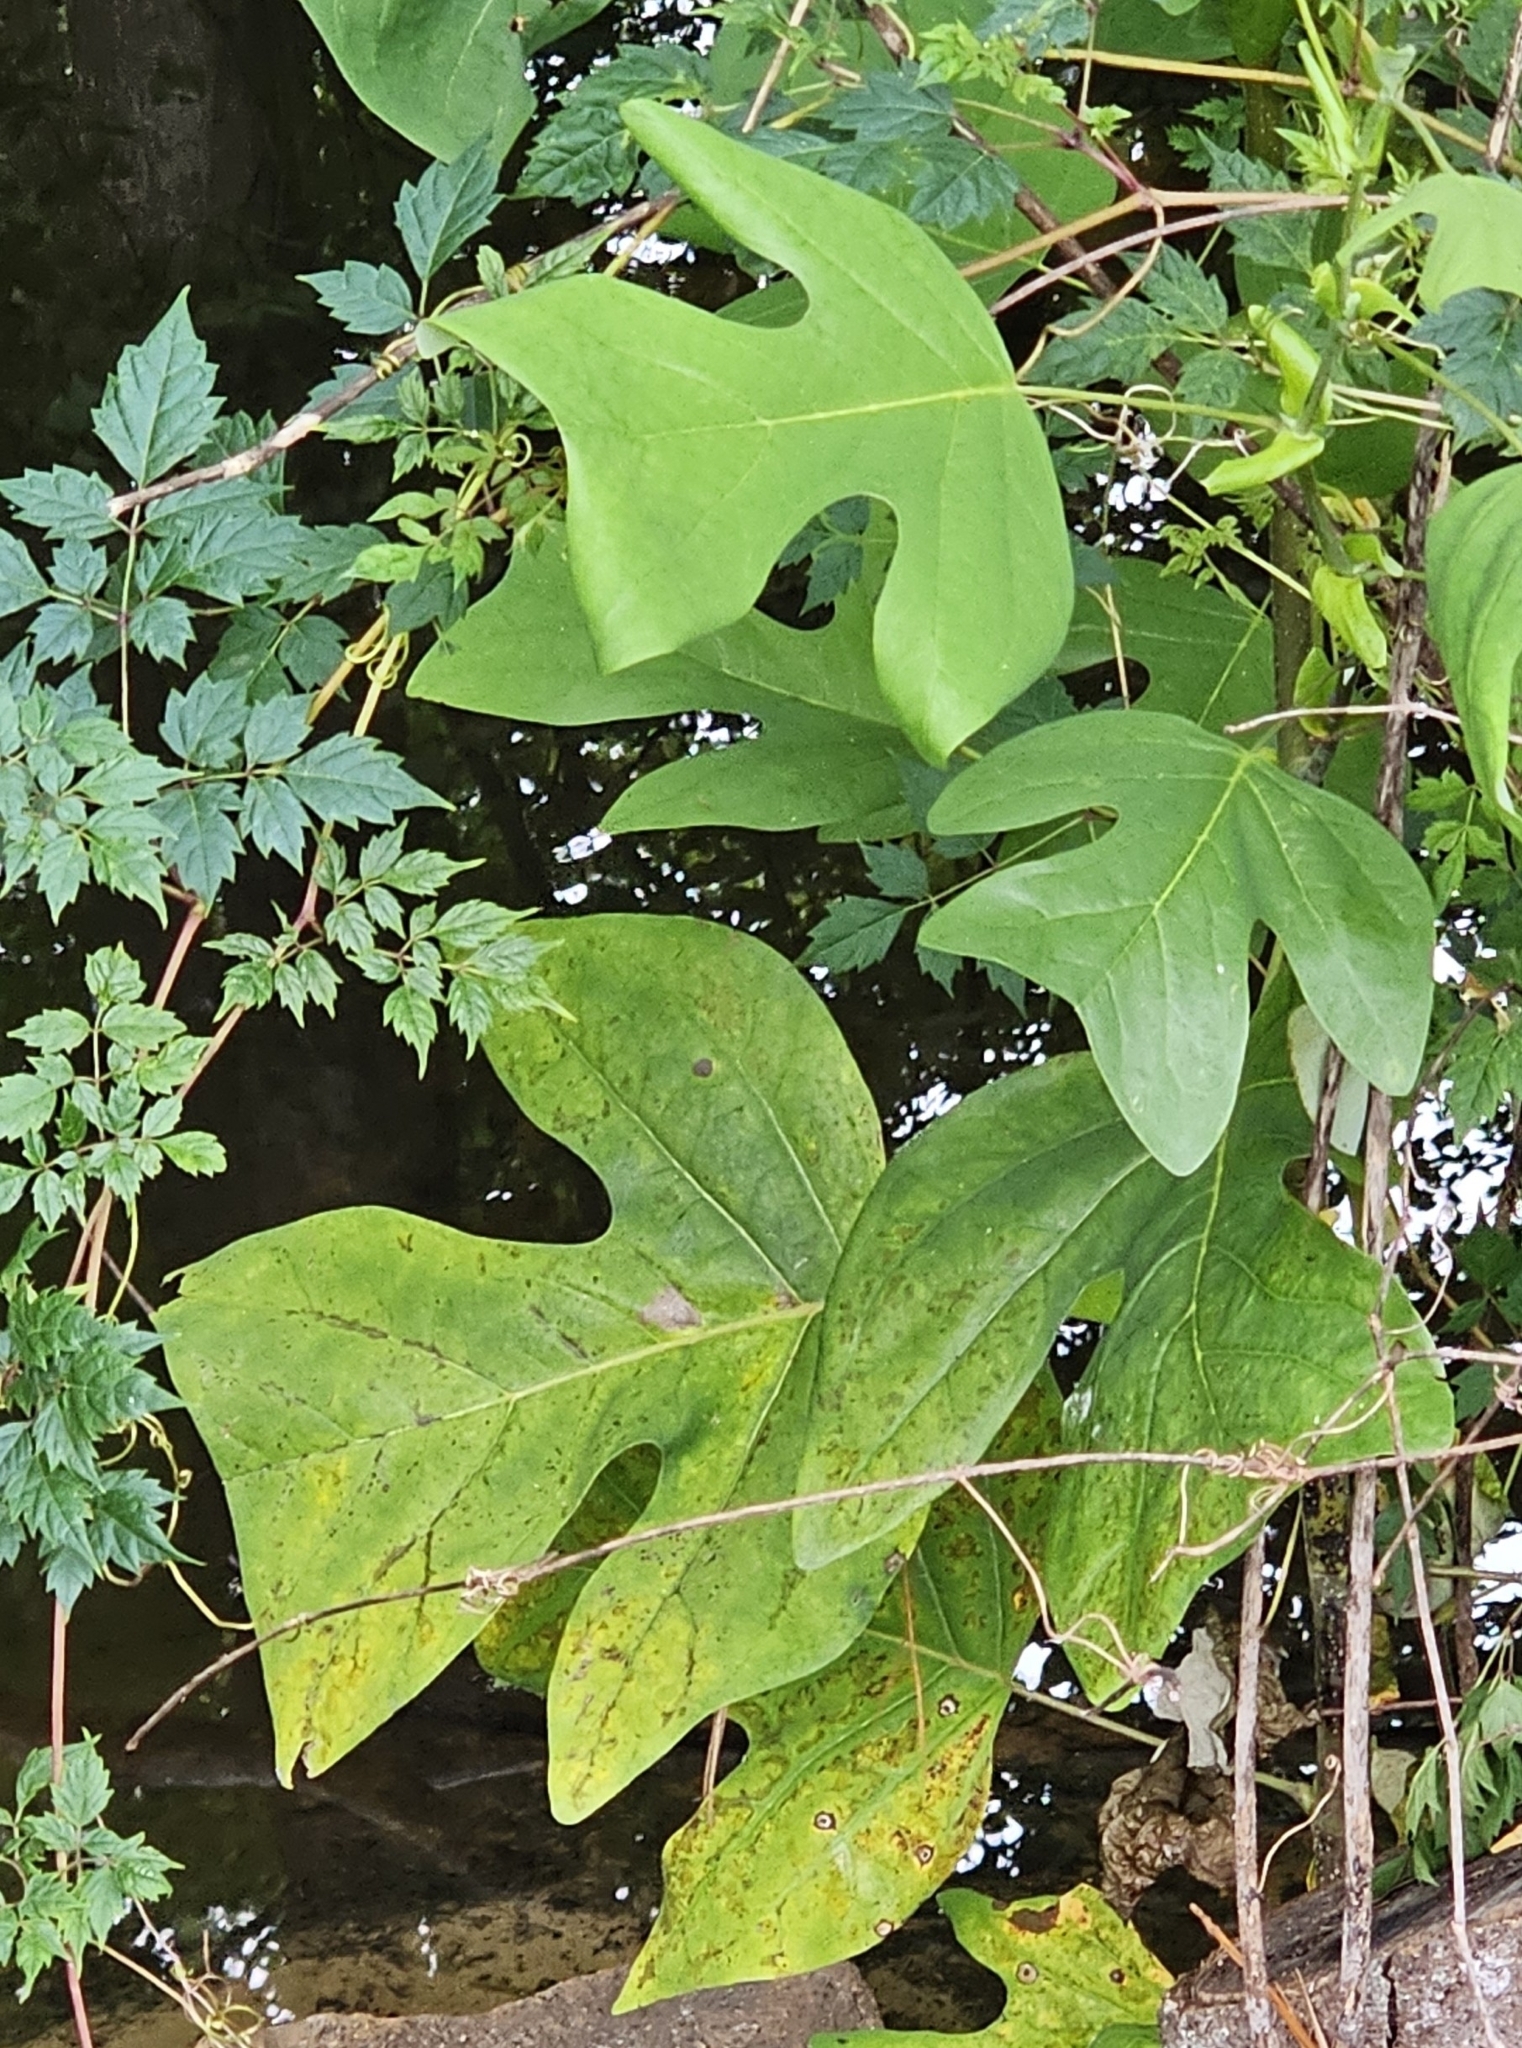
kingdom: Plantae
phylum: Tracheophyta
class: Magnoliopsida
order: Magnoliales
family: Magnoliaceae
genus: Liriodendron
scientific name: Liriodendron tulipifera
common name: Tulip tree
